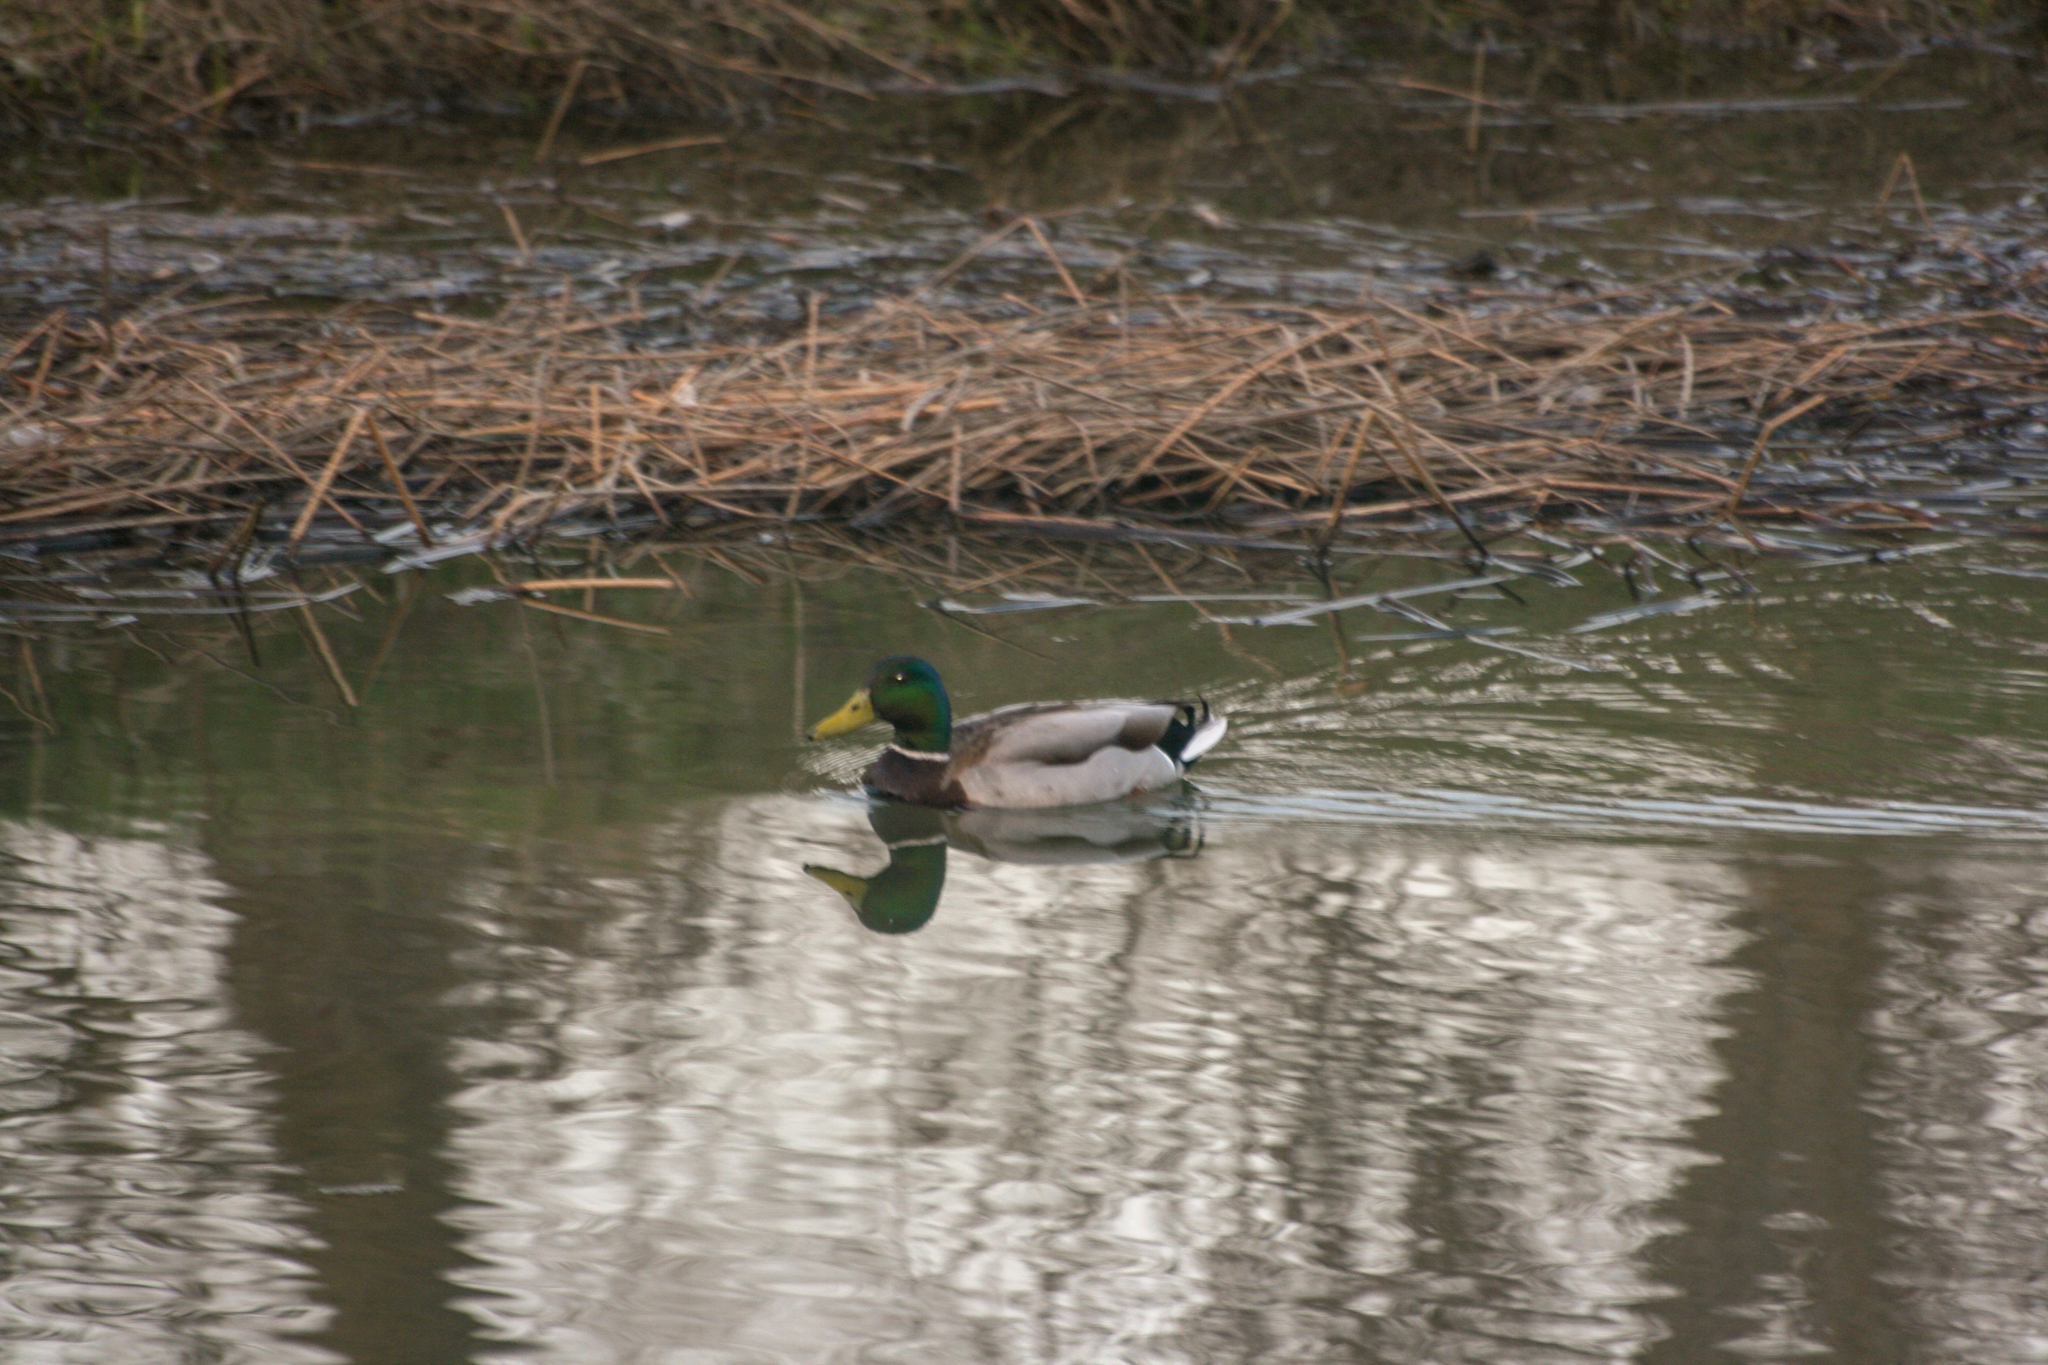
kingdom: Animalia
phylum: Chordata
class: Aves
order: Anseriformes
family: Anatidae
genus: Anas
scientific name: Anas platyrhynchos
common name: Mallard
